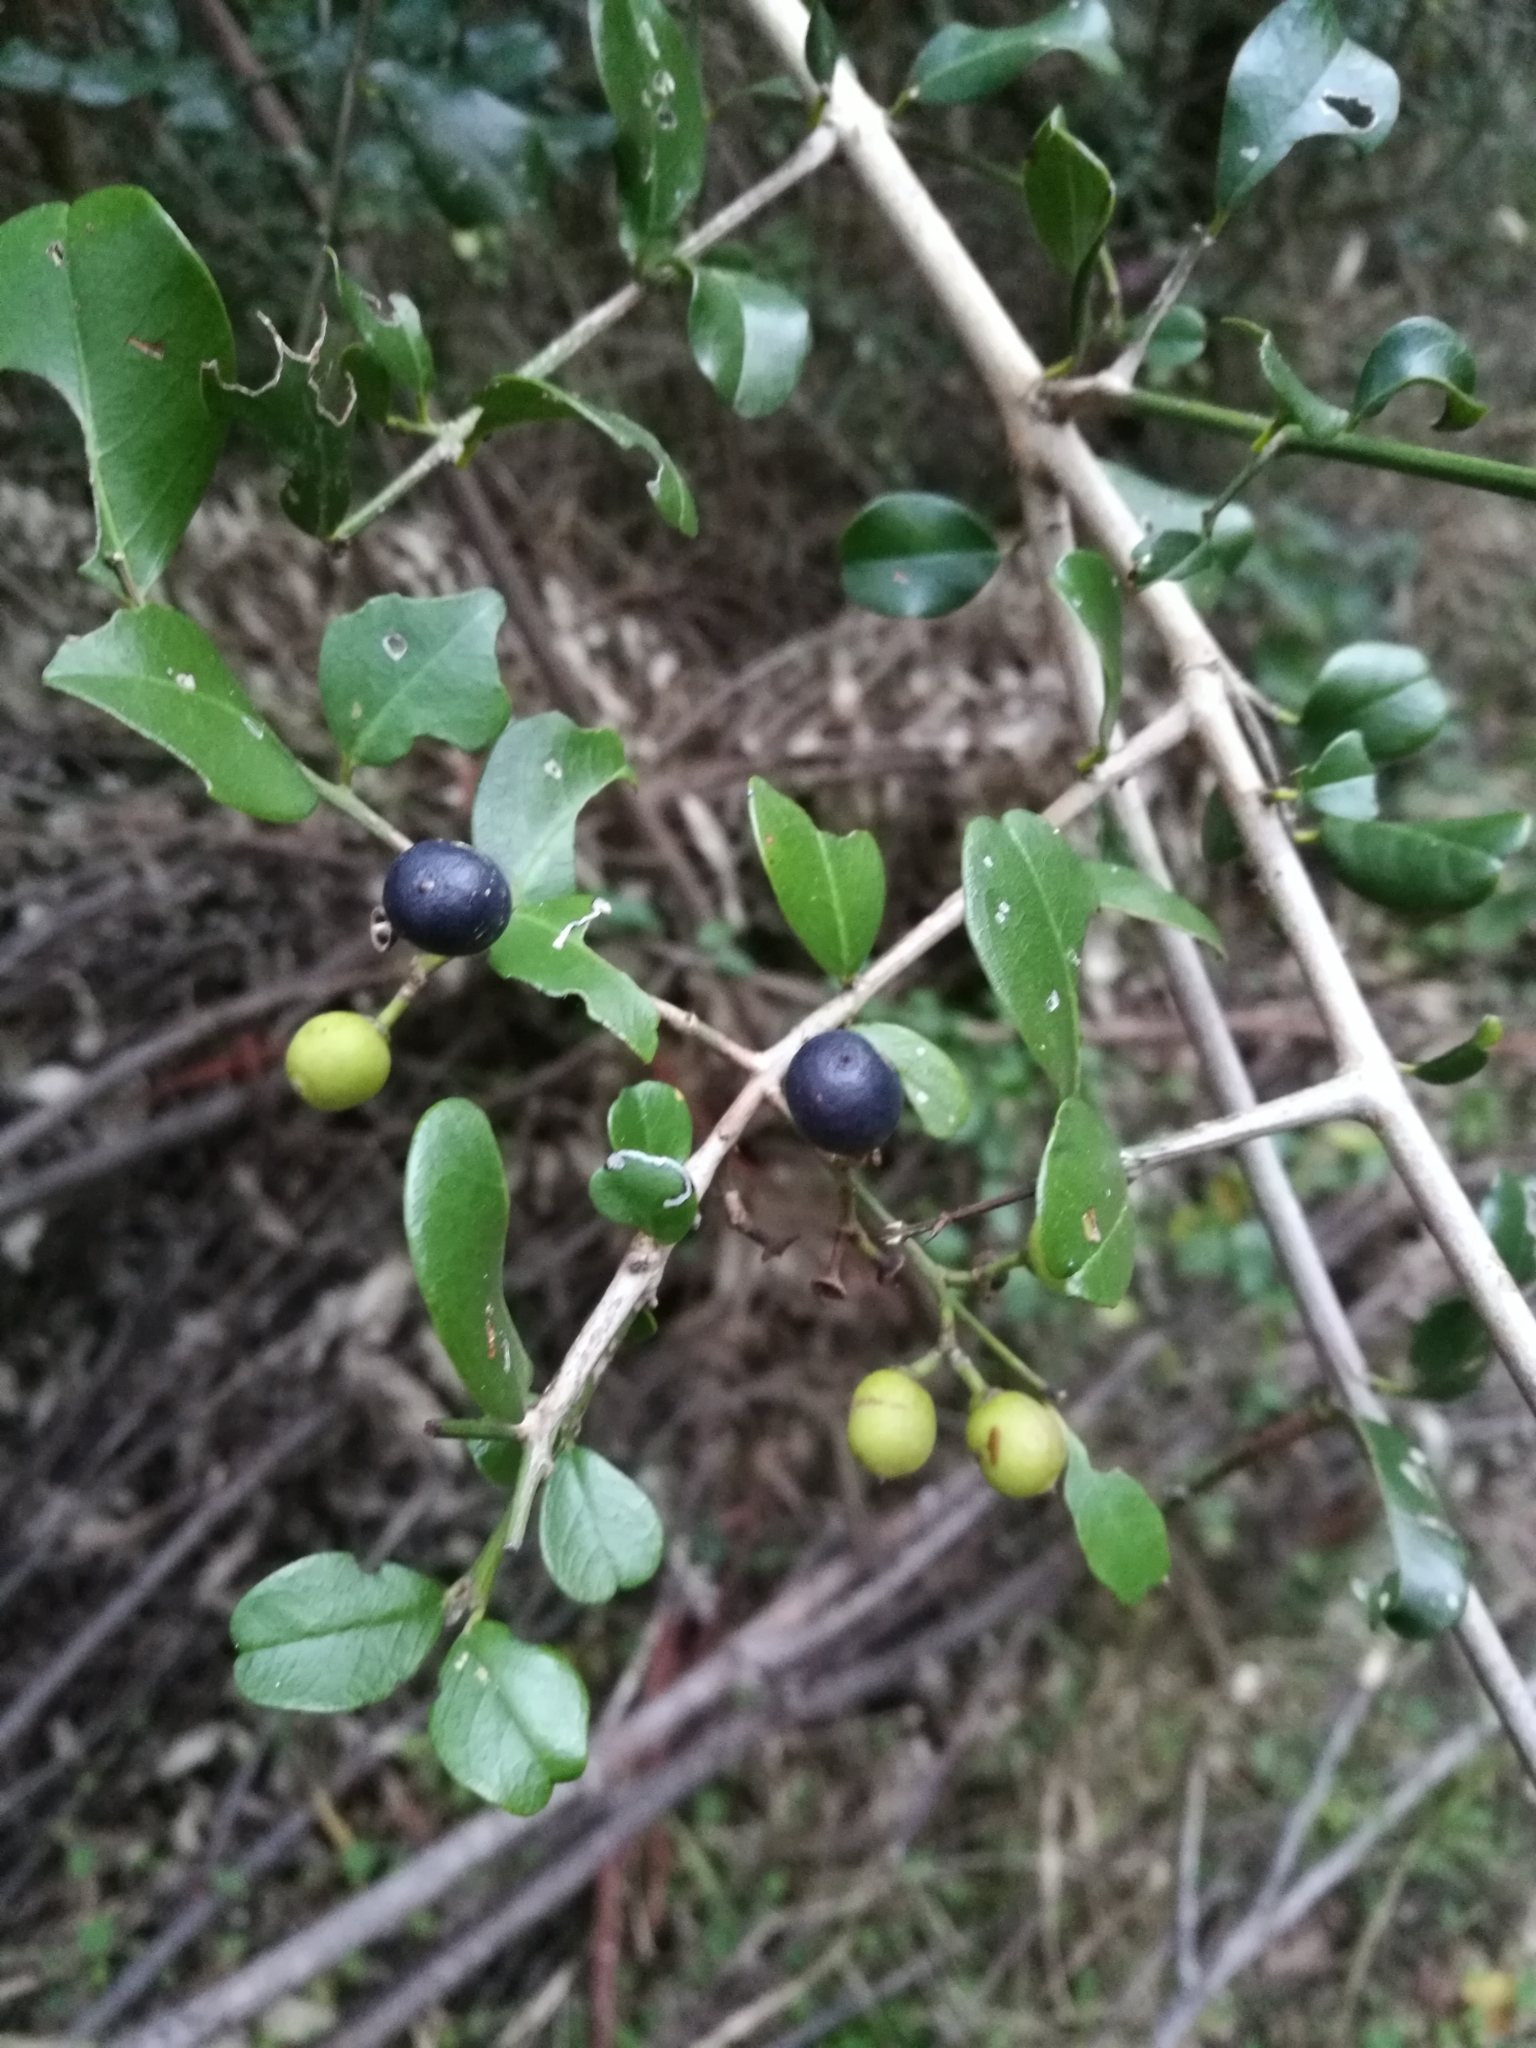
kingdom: Plantae
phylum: Tracheophyta
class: Magnoliopsida
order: Rosales
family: Rhamnaceae
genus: Scutia
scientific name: Scutia myrtina
